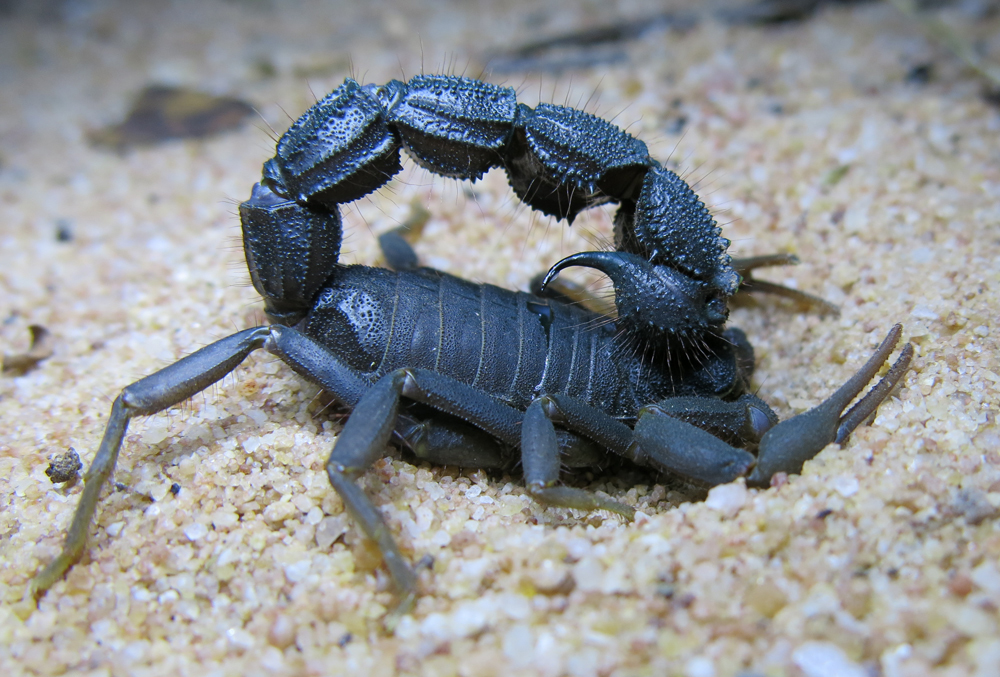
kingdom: Animalia
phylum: Arthropoda
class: Arachnida
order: Scorpiones
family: Buthidae
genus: Parabuthus
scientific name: Parabuthus transvaalicus
